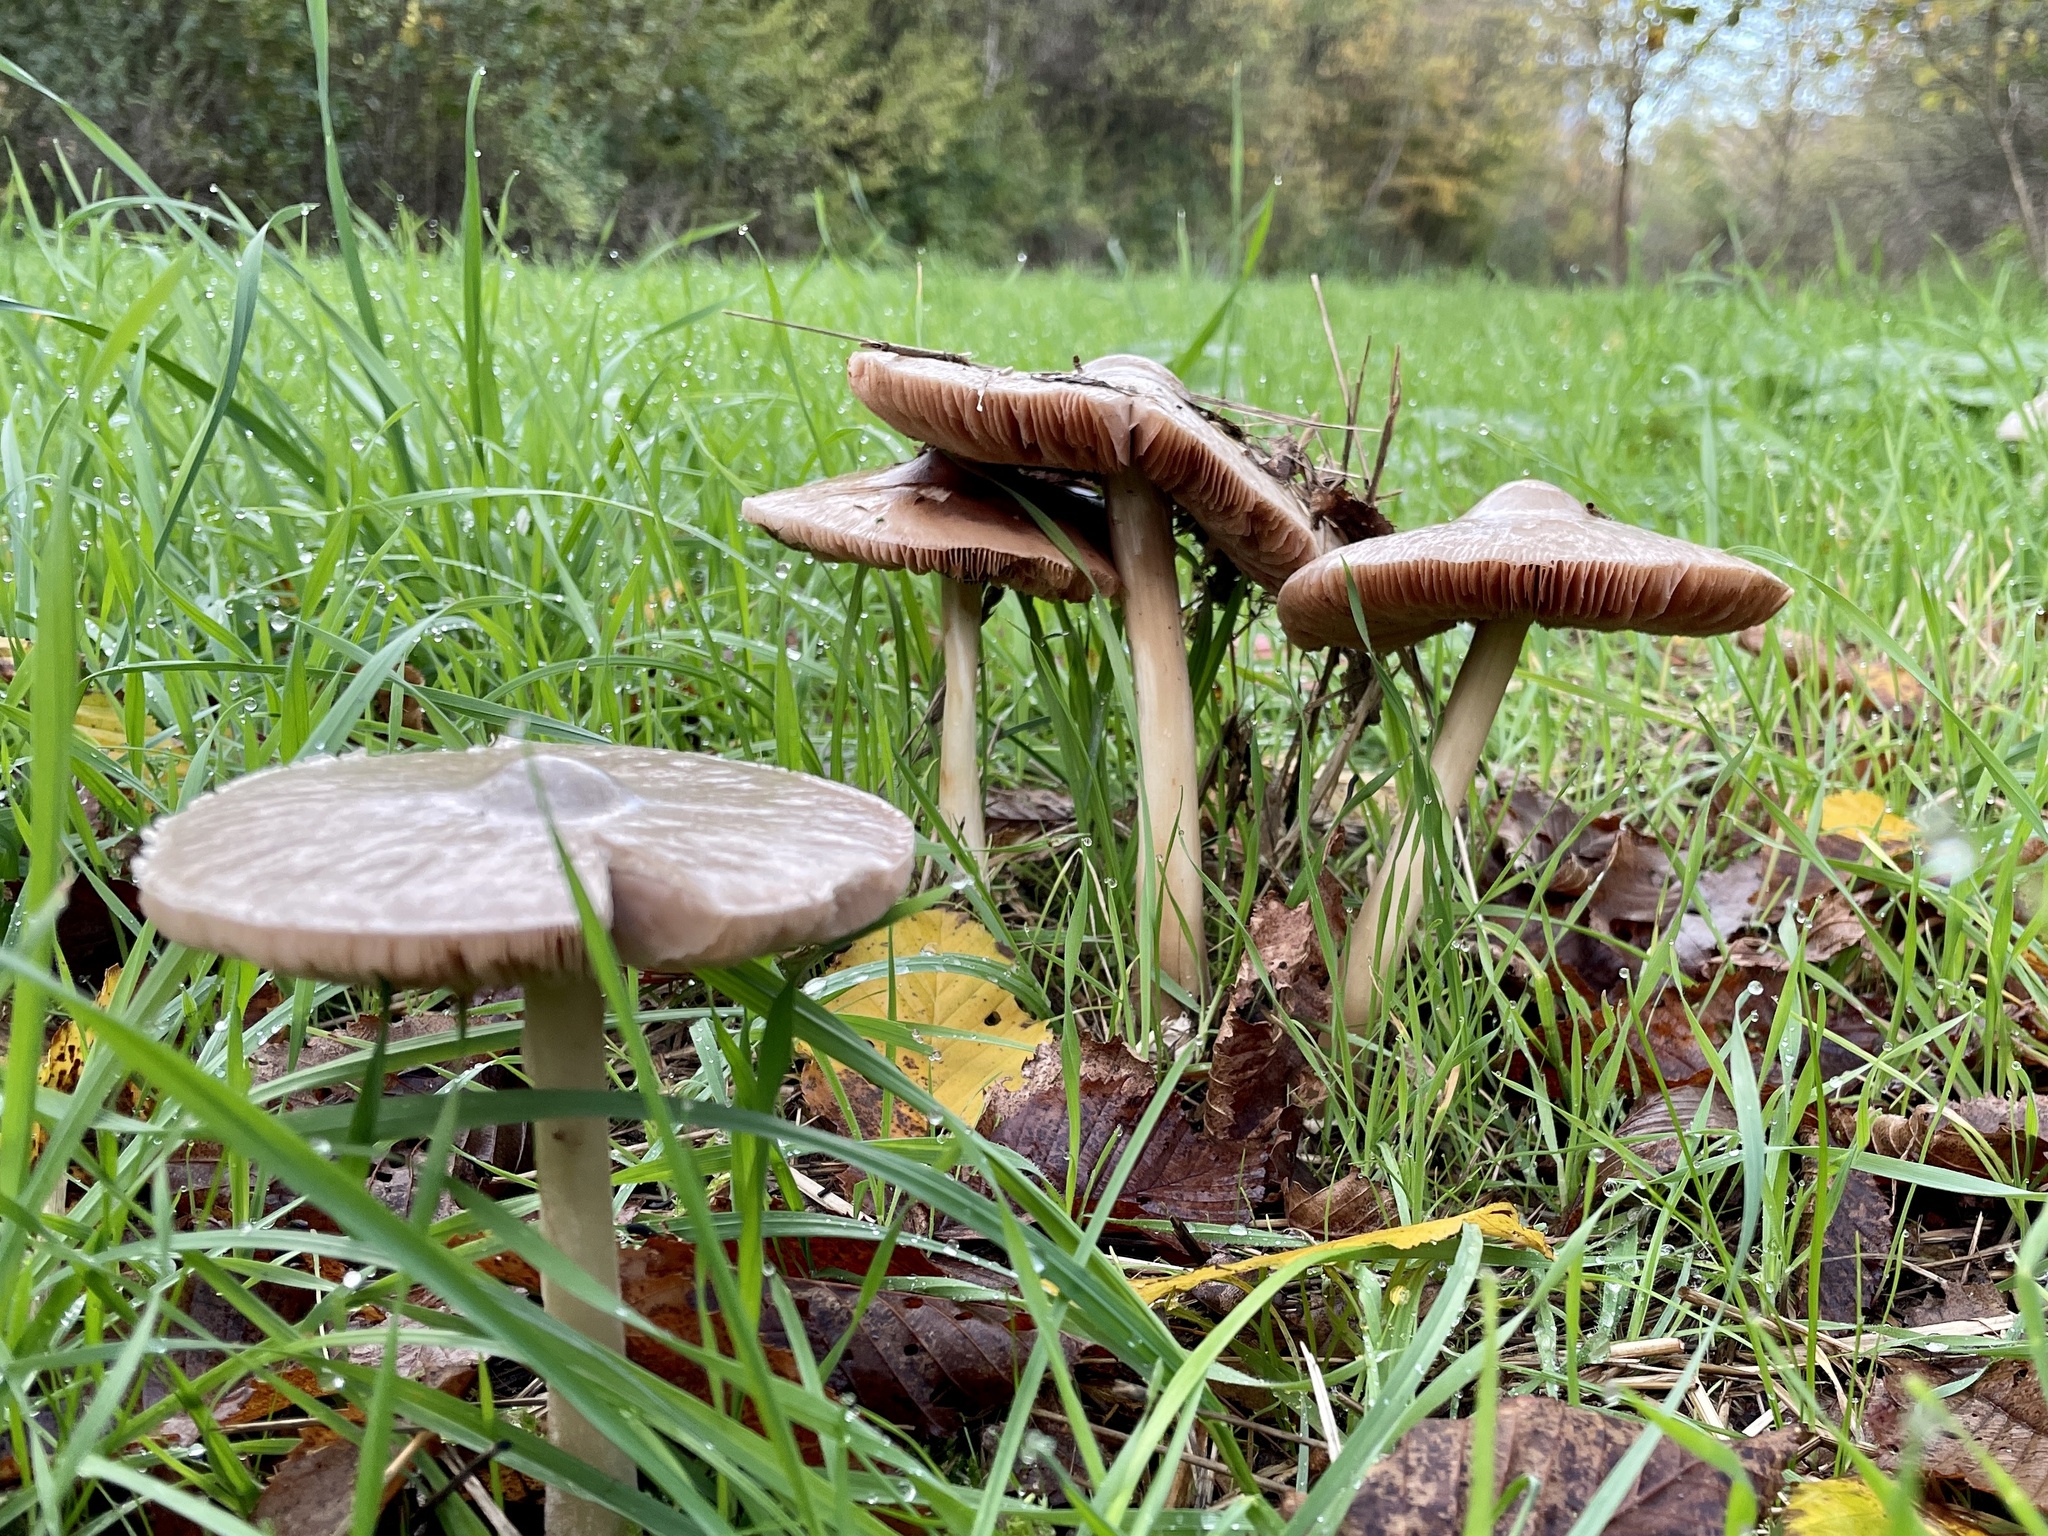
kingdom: Fungi
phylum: Basidiomycota
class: Agaricomycetes
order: Agaricales
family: Pluteaceae
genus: Volvopluteus
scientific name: Volvopluteus gloiocephalus
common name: Stubble rosegill
